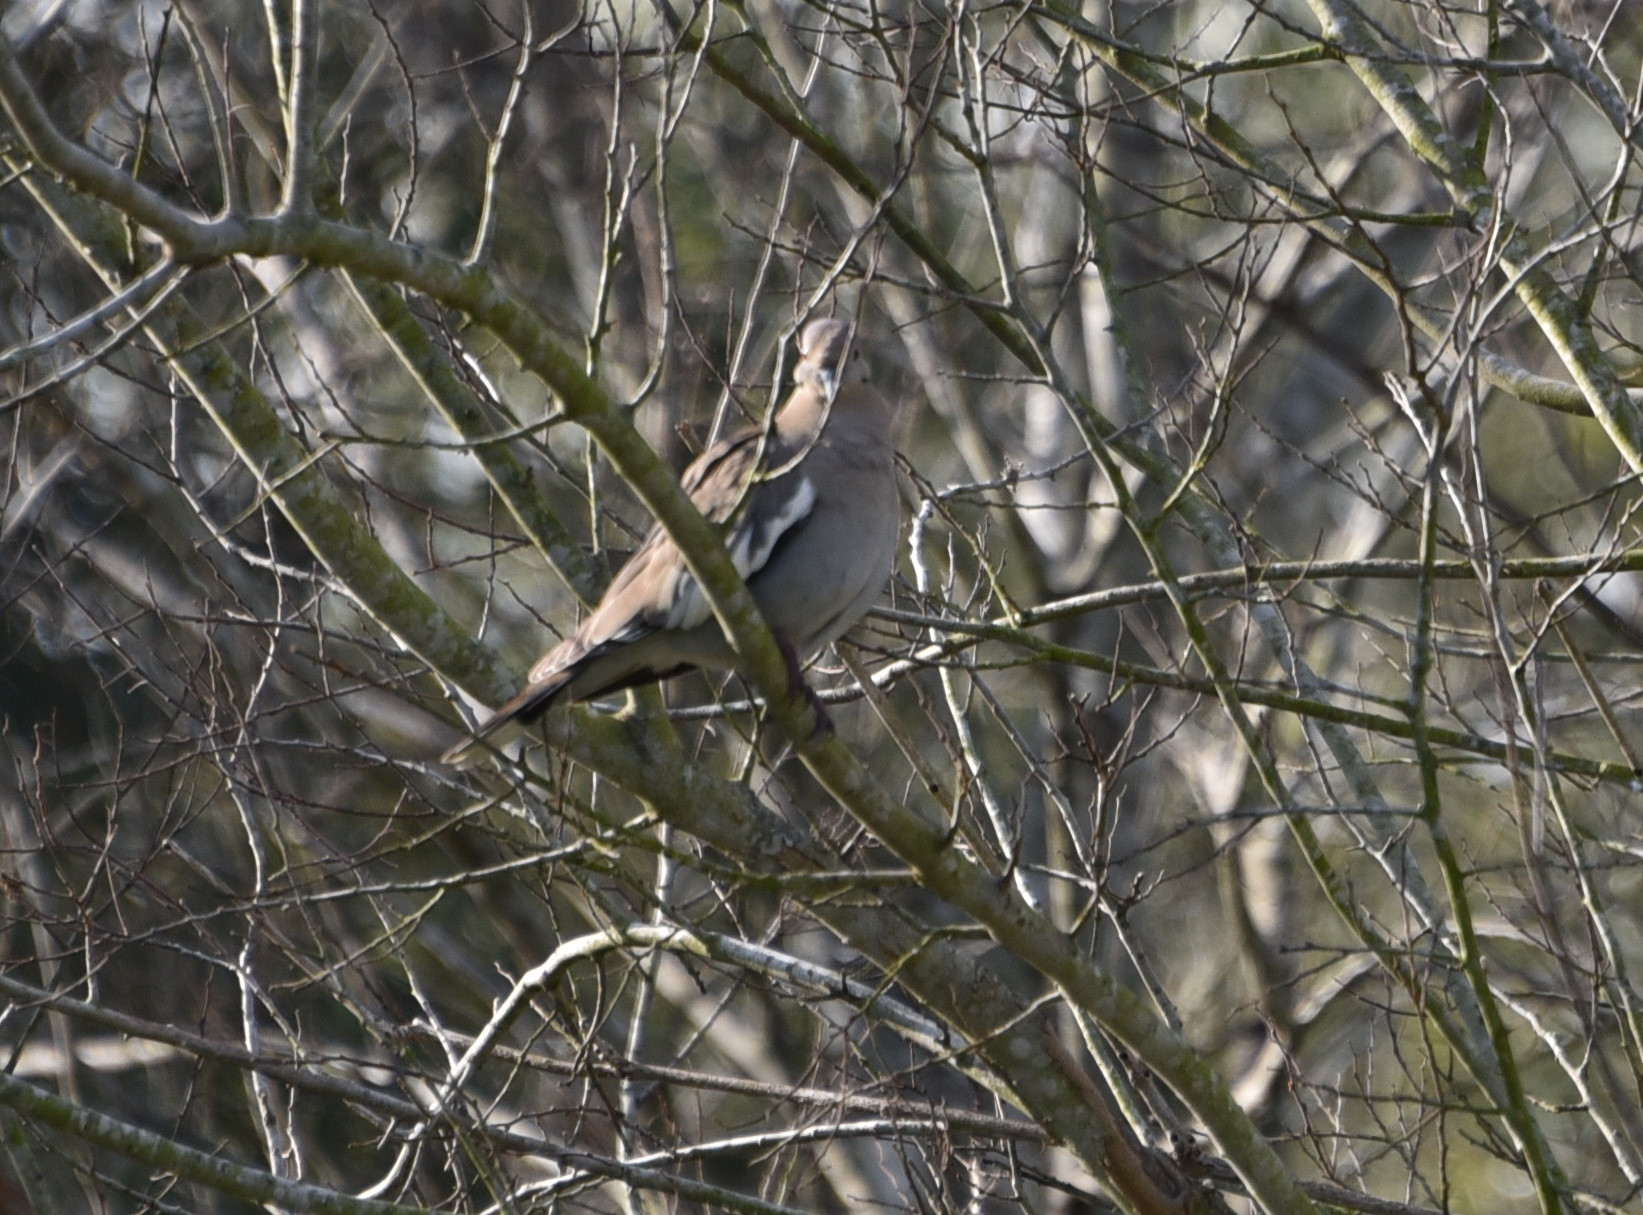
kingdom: Animalia
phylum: Chordata
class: Aves
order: Columbiformes
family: Columbidae
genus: Zenaida
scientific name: Zenaida asiatica
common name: White-winged dove
